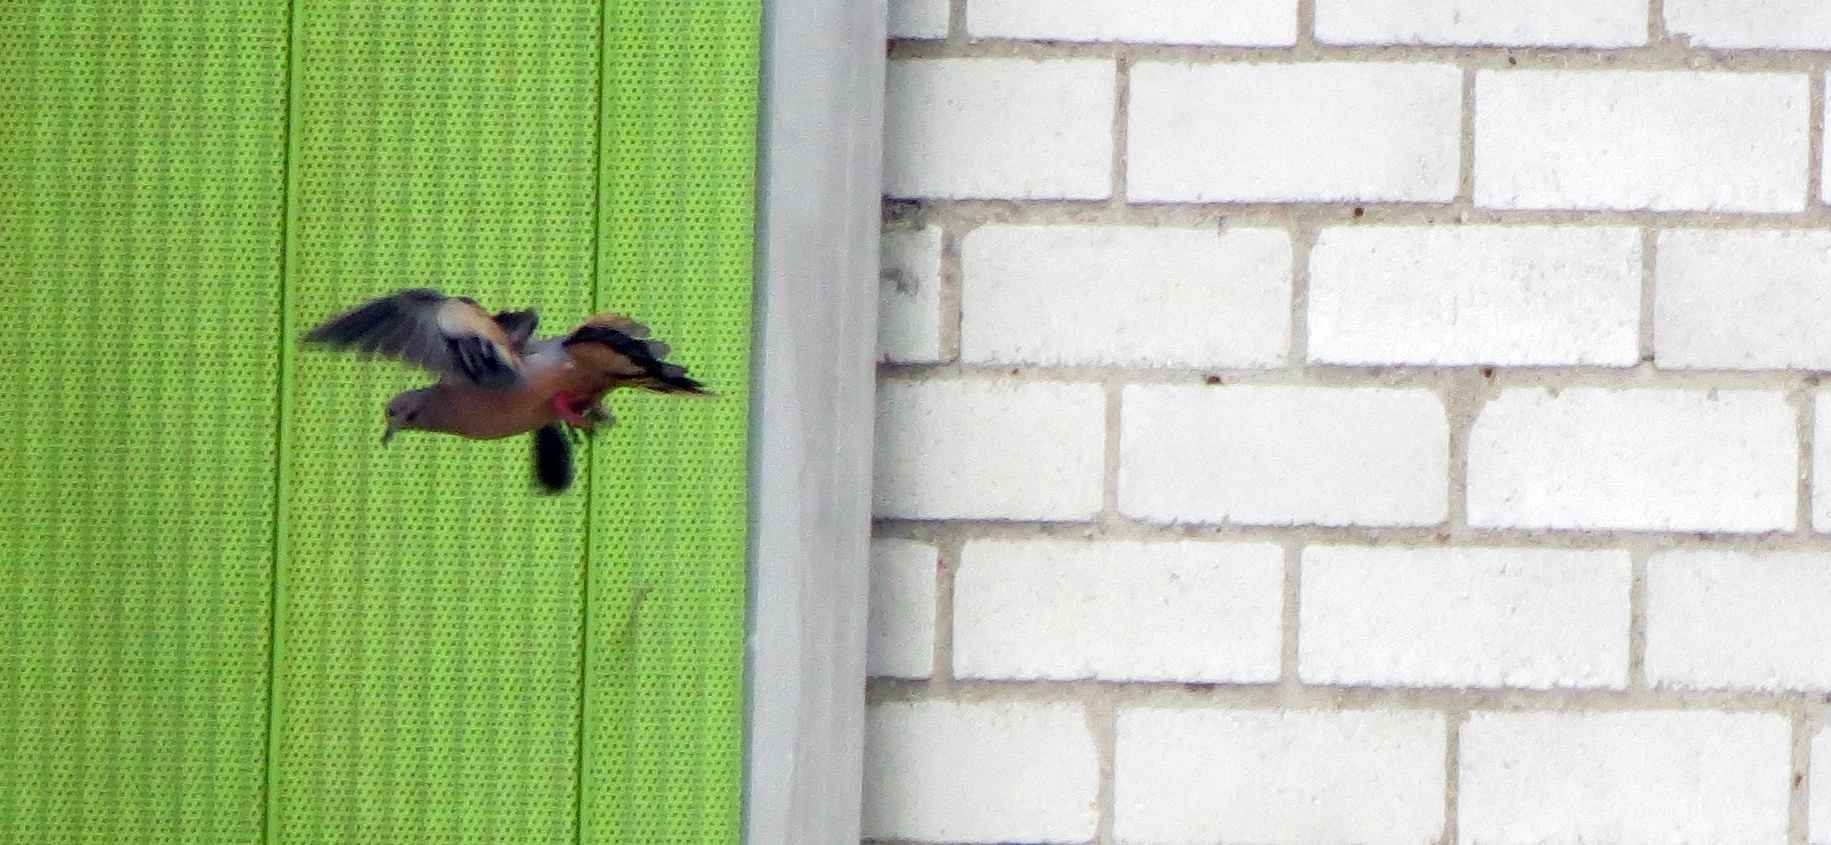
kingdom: Animalia
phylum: Chordata
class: Aves
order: Columbiformes
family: Columbidae
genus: Zenaida
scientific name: Zenaida auriculata
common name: Eared dove
